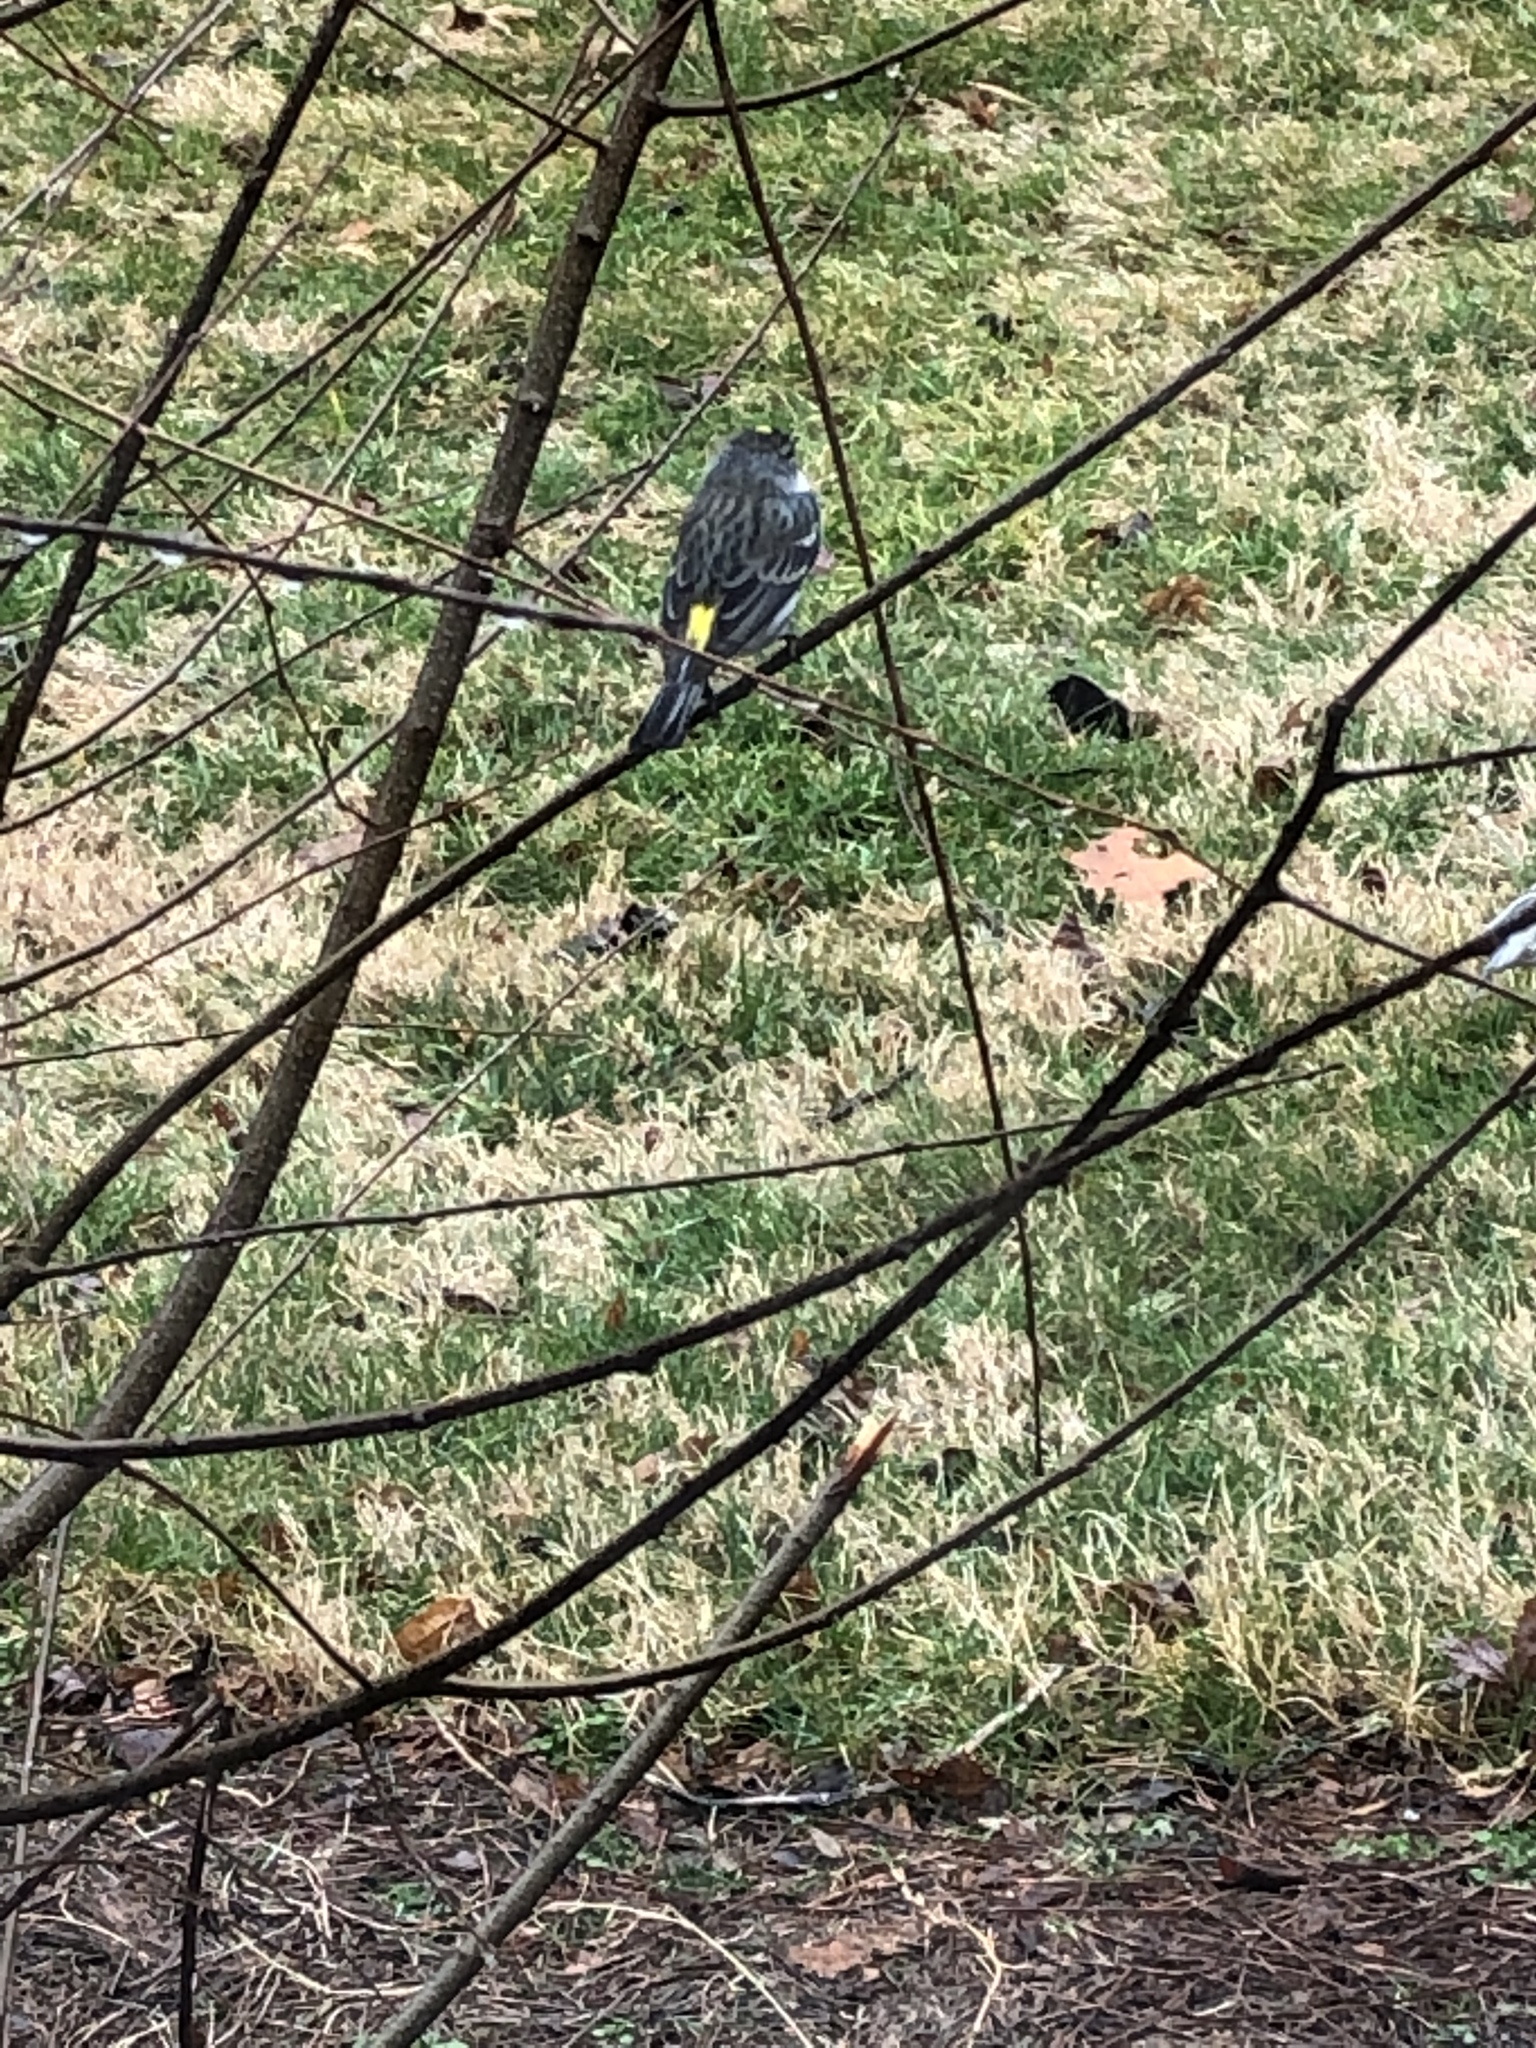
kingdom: Animalia
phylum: Chordata
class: Aves
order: Passeriformes
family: Parulidae
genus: Setophaga
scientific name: Setophaga coronata
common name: Myrtle warbler
